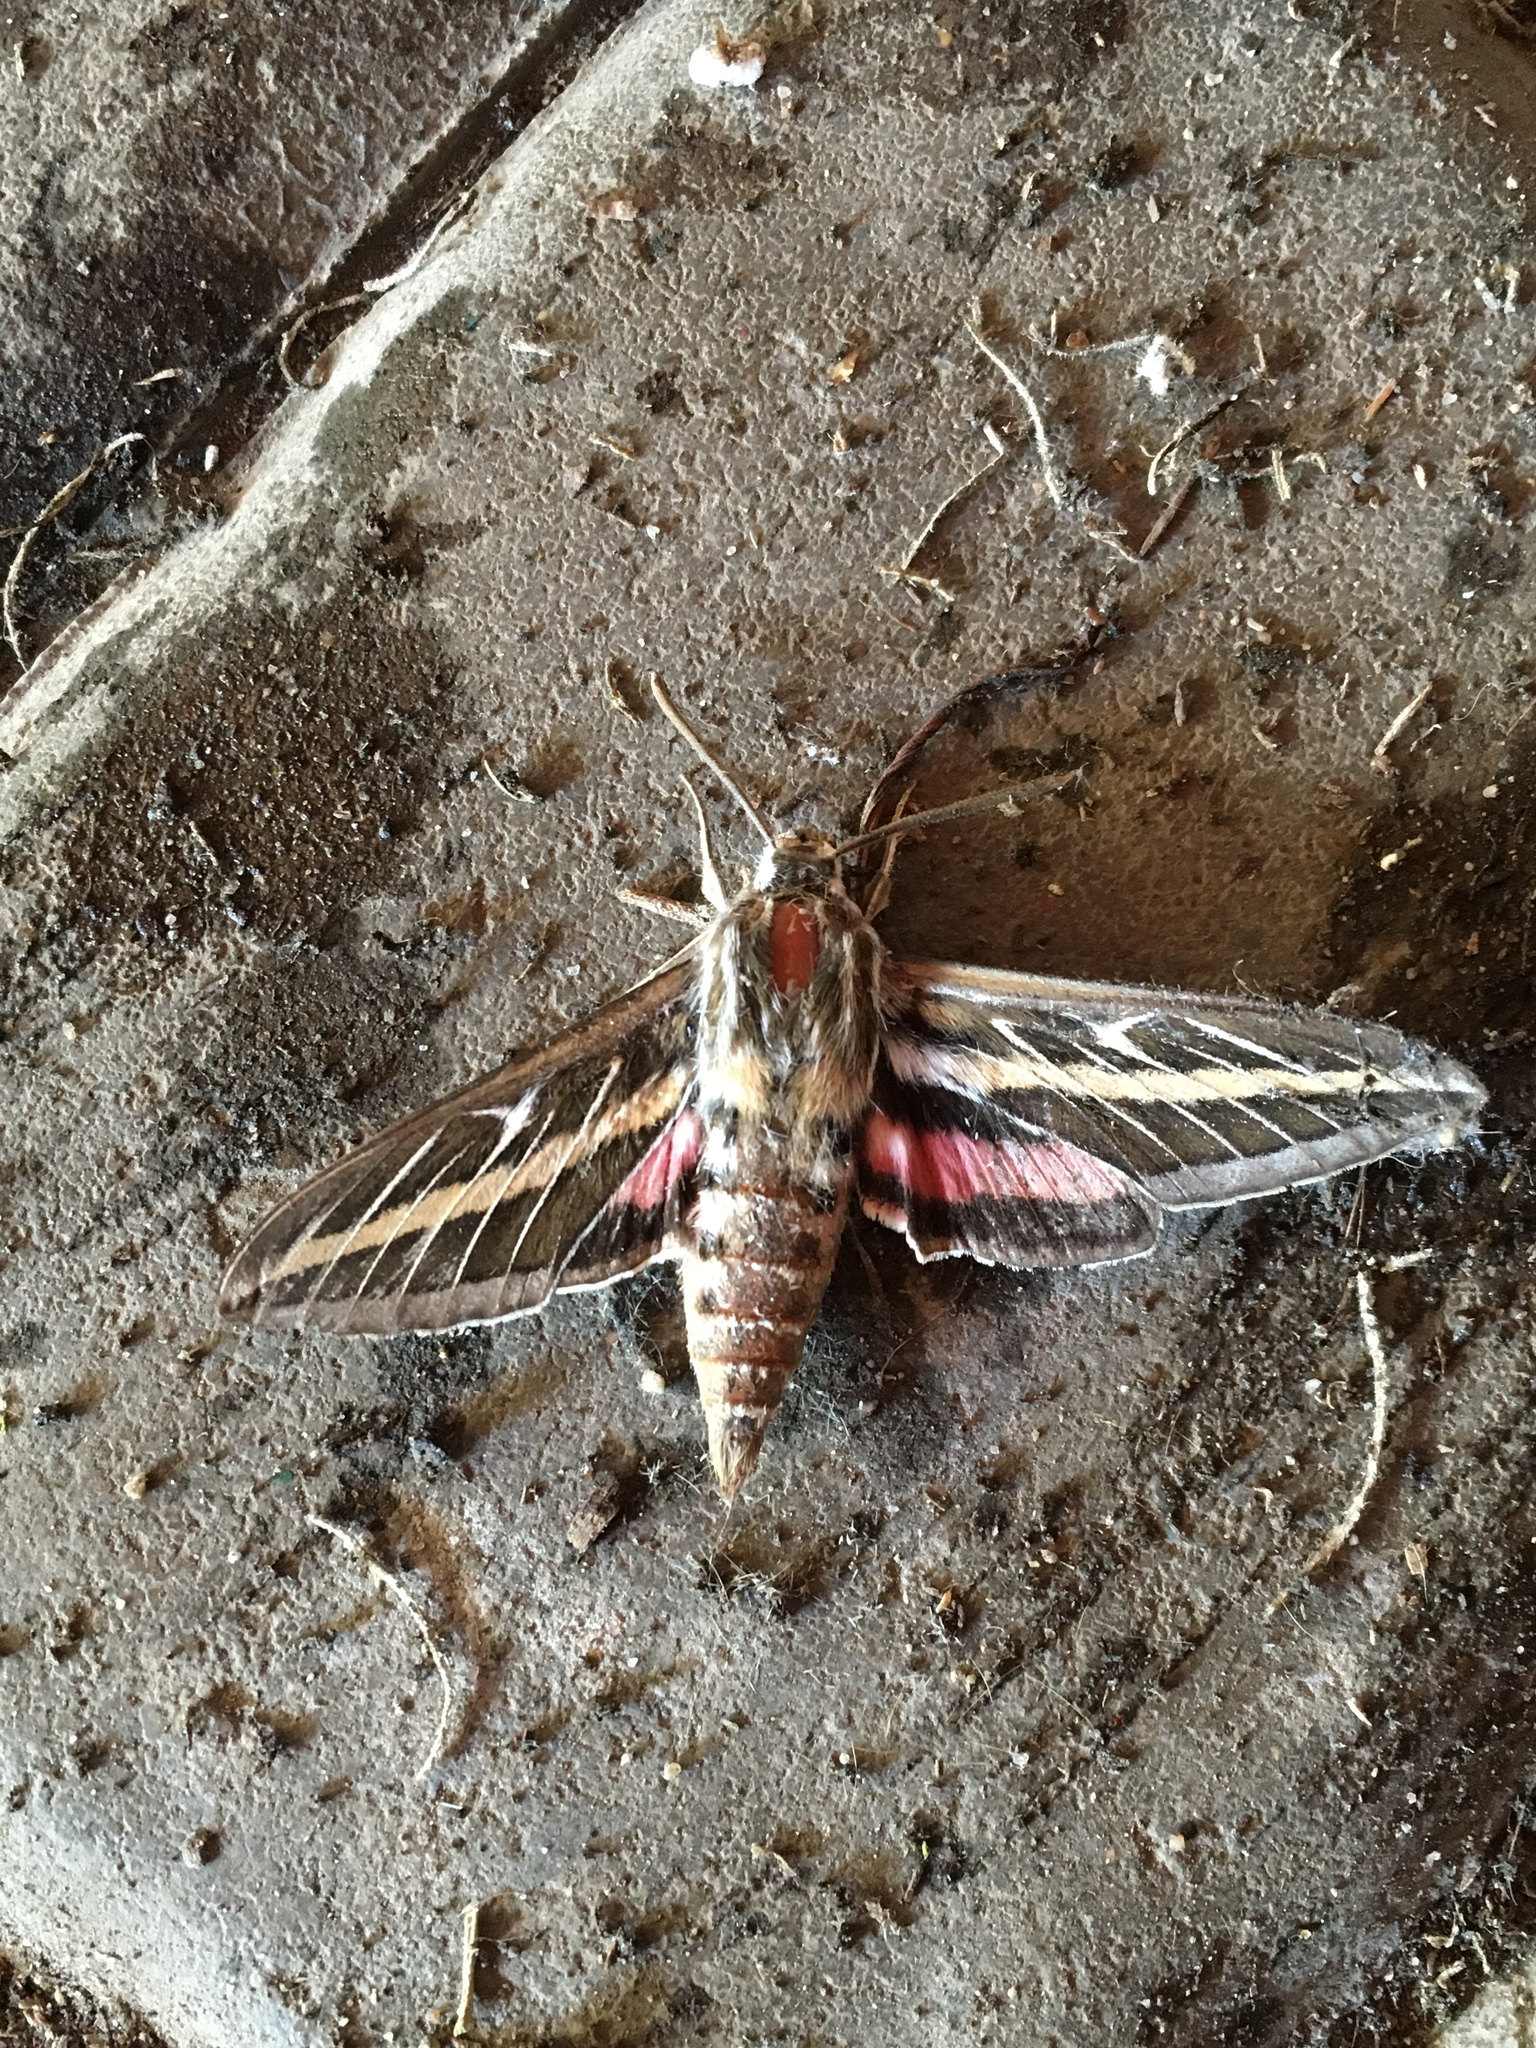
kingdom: Animalia
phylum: Arthropoda
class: Insecta
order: Lepidoptera
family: Sphingidae
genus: Hyles
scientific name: Hyles lineata
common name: White-lined sphinx
